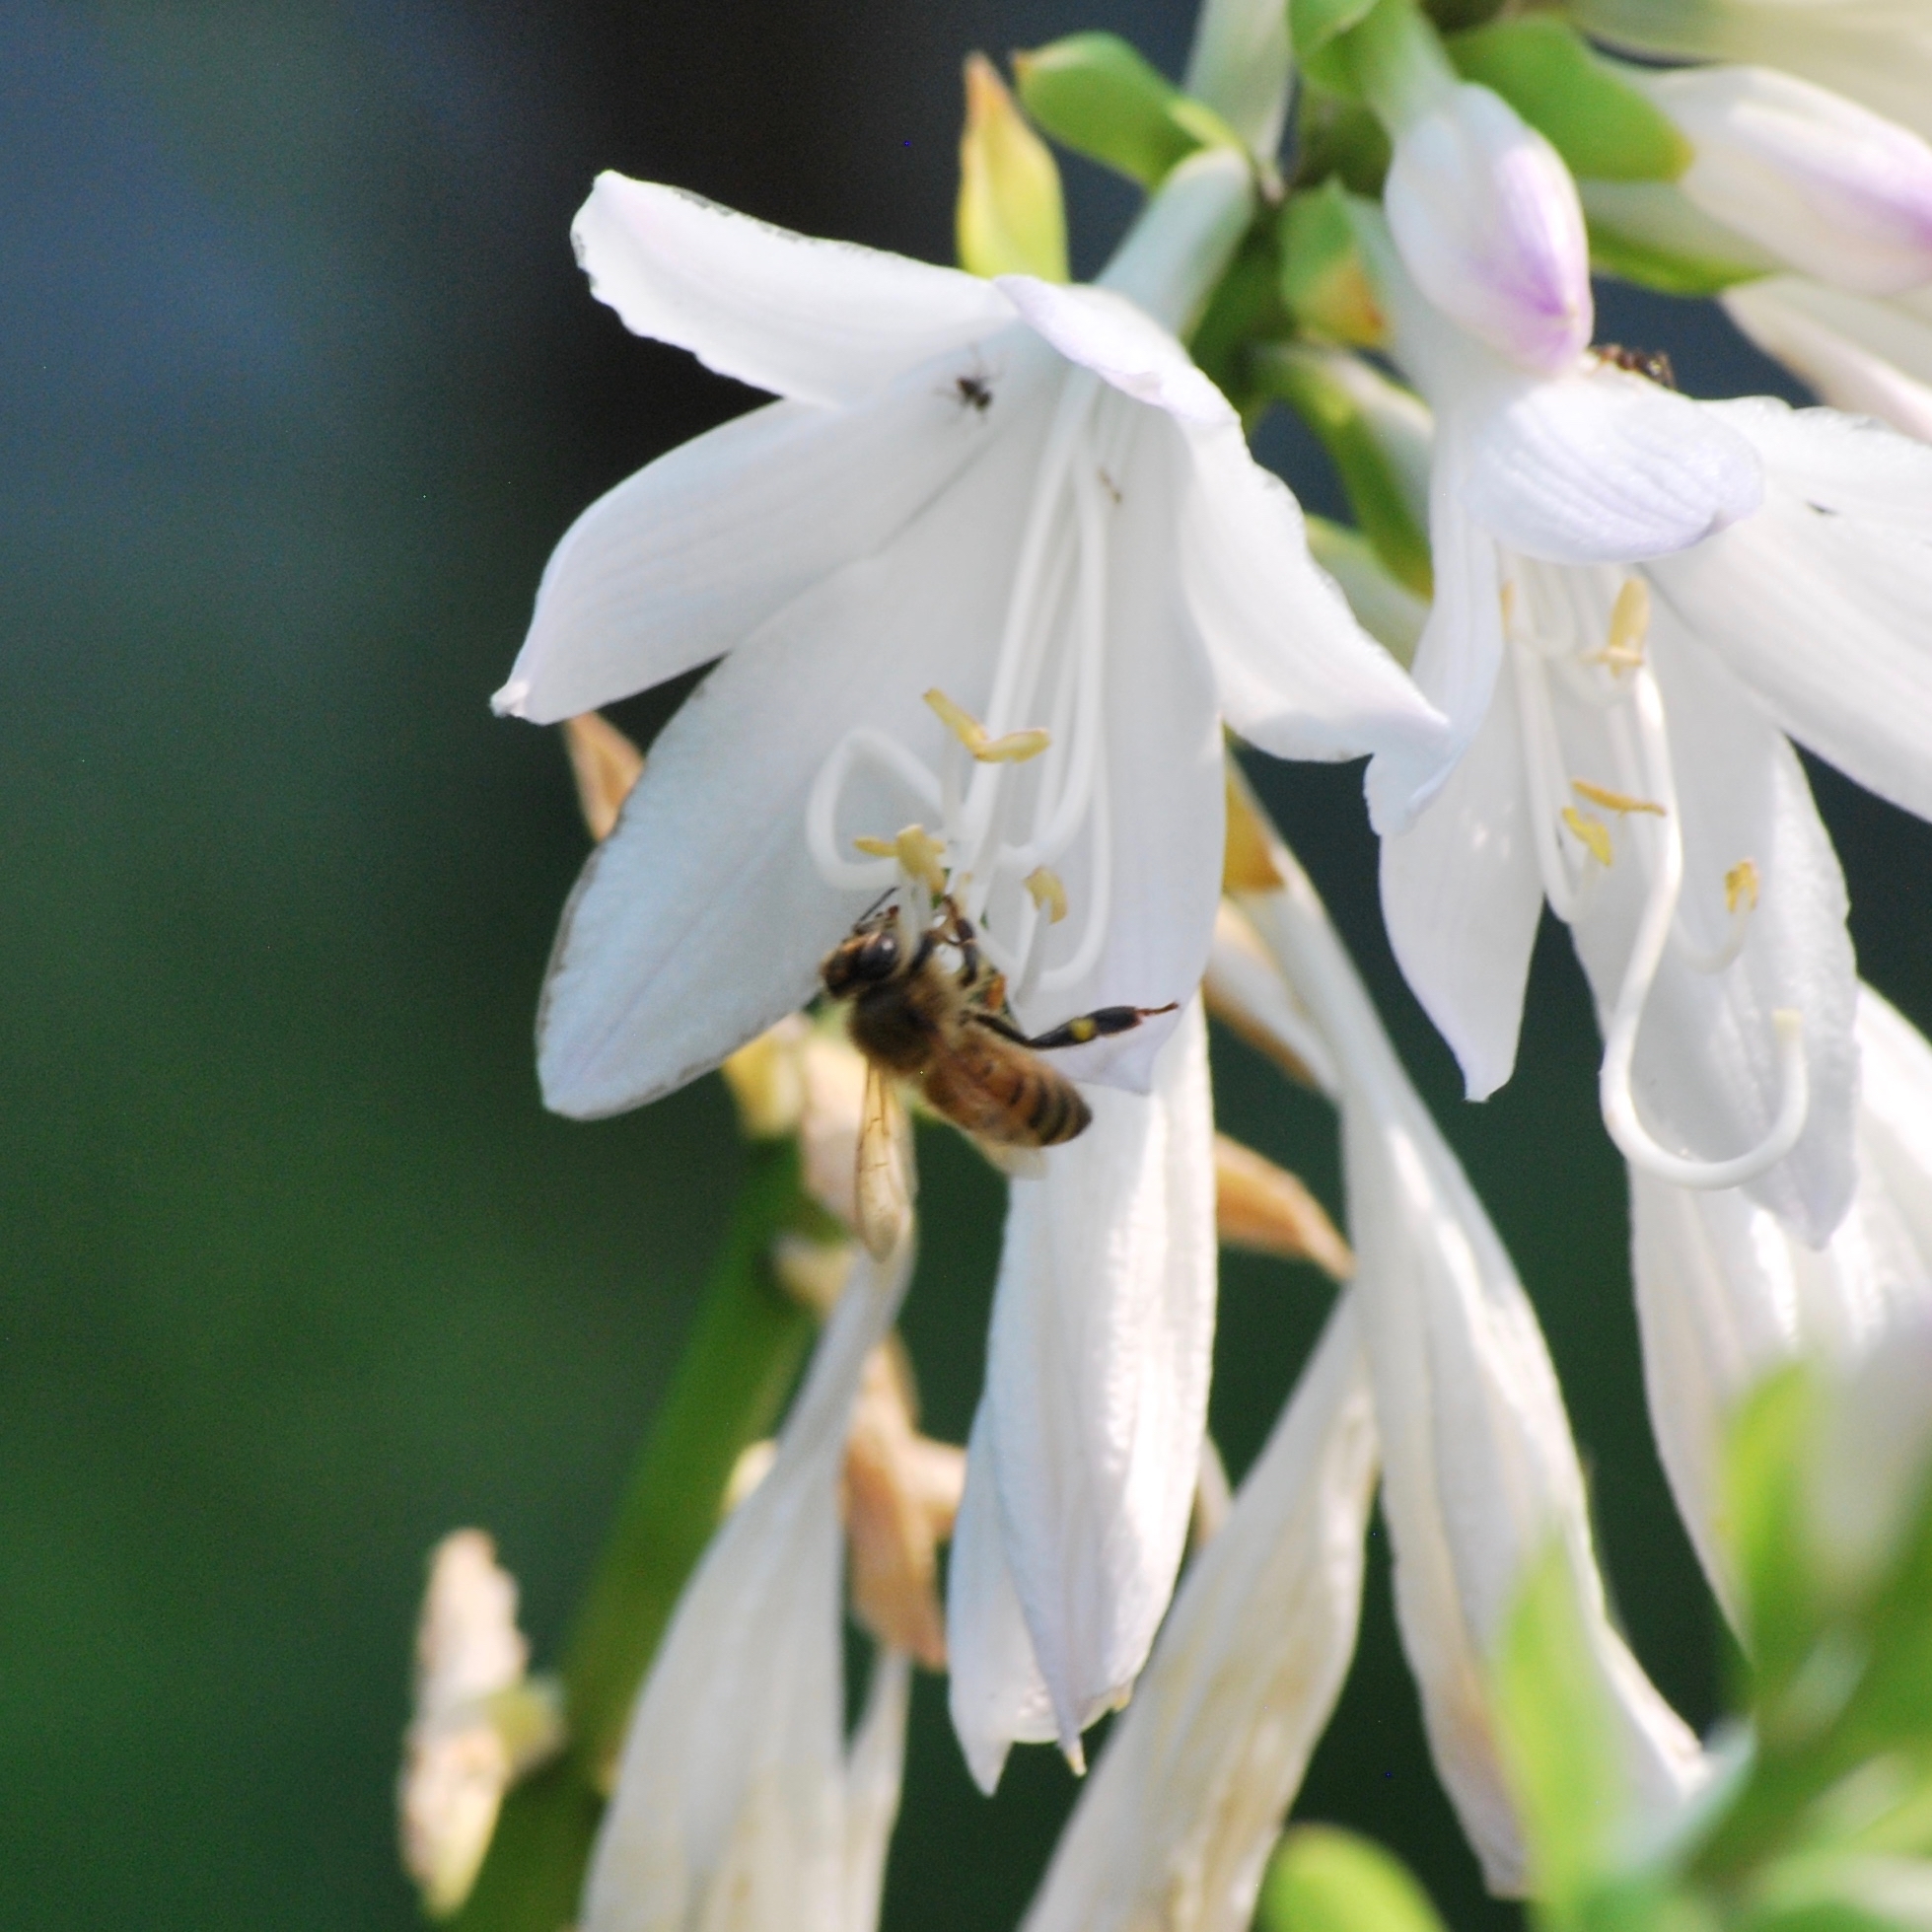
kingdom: Animalia
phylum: Arthropoda
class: Insecta
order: Hymenoptera
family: Apidae
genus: Apis
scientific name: Apis mellifera
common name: Honey bee
